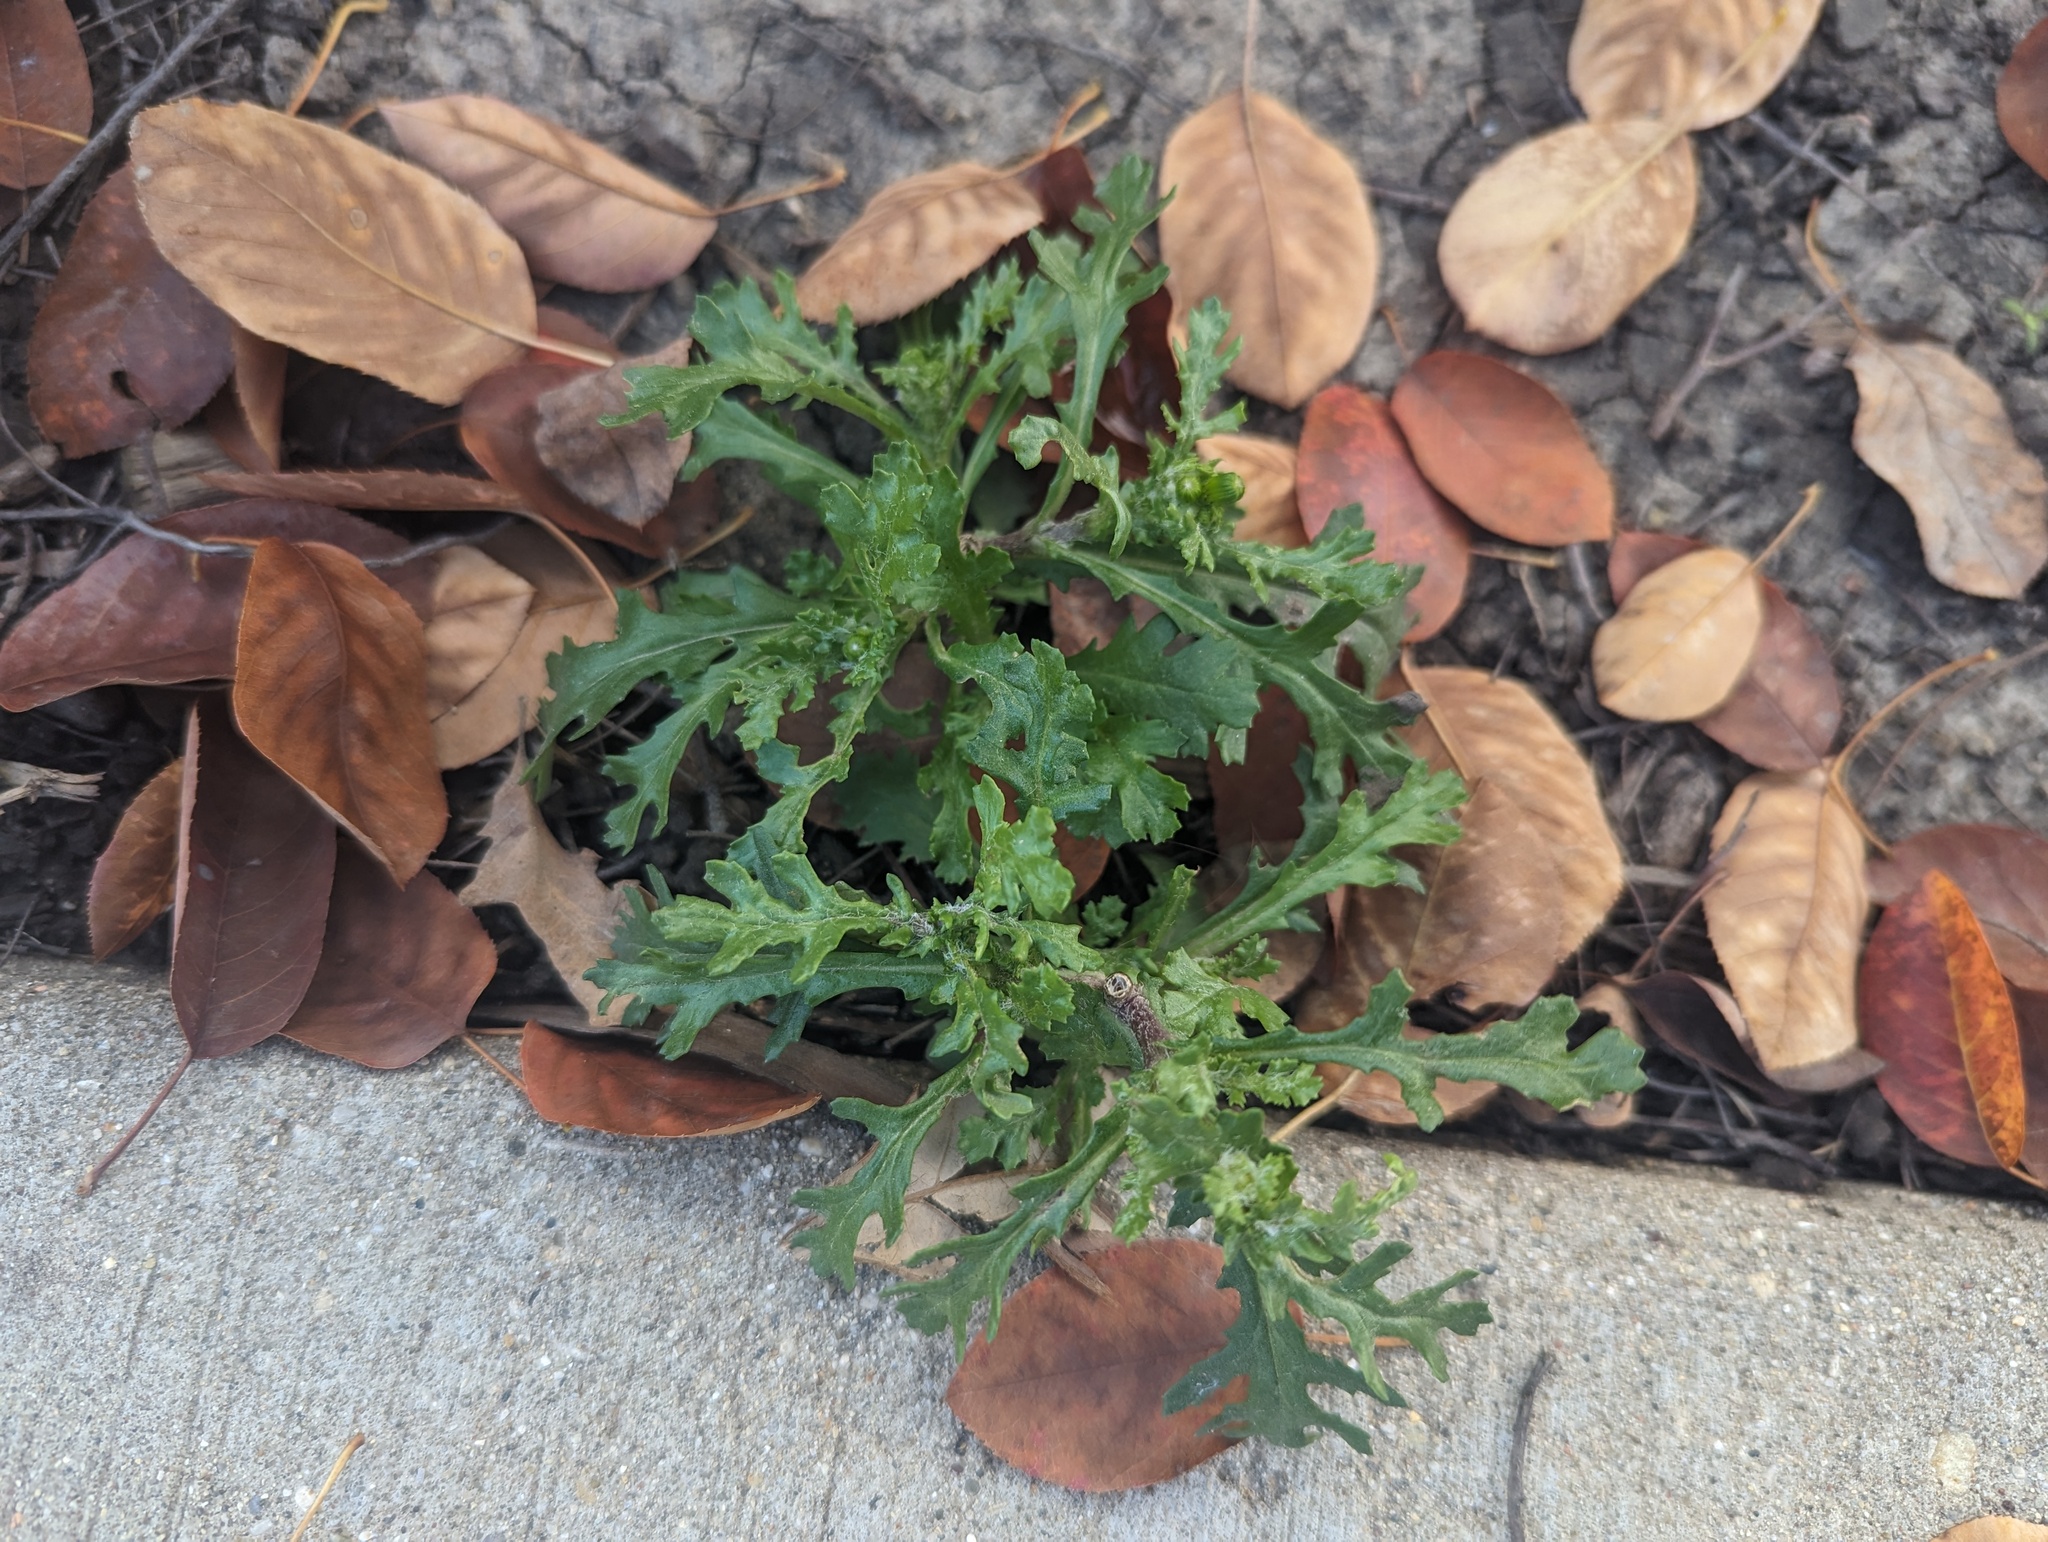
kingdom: Plantae
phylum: Tracheophyta
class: Magnoliopsida
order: Asterales
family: Asteraceae
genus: Senecio
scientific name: Senecio vulgaris
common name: Old-man-in-the-spring
